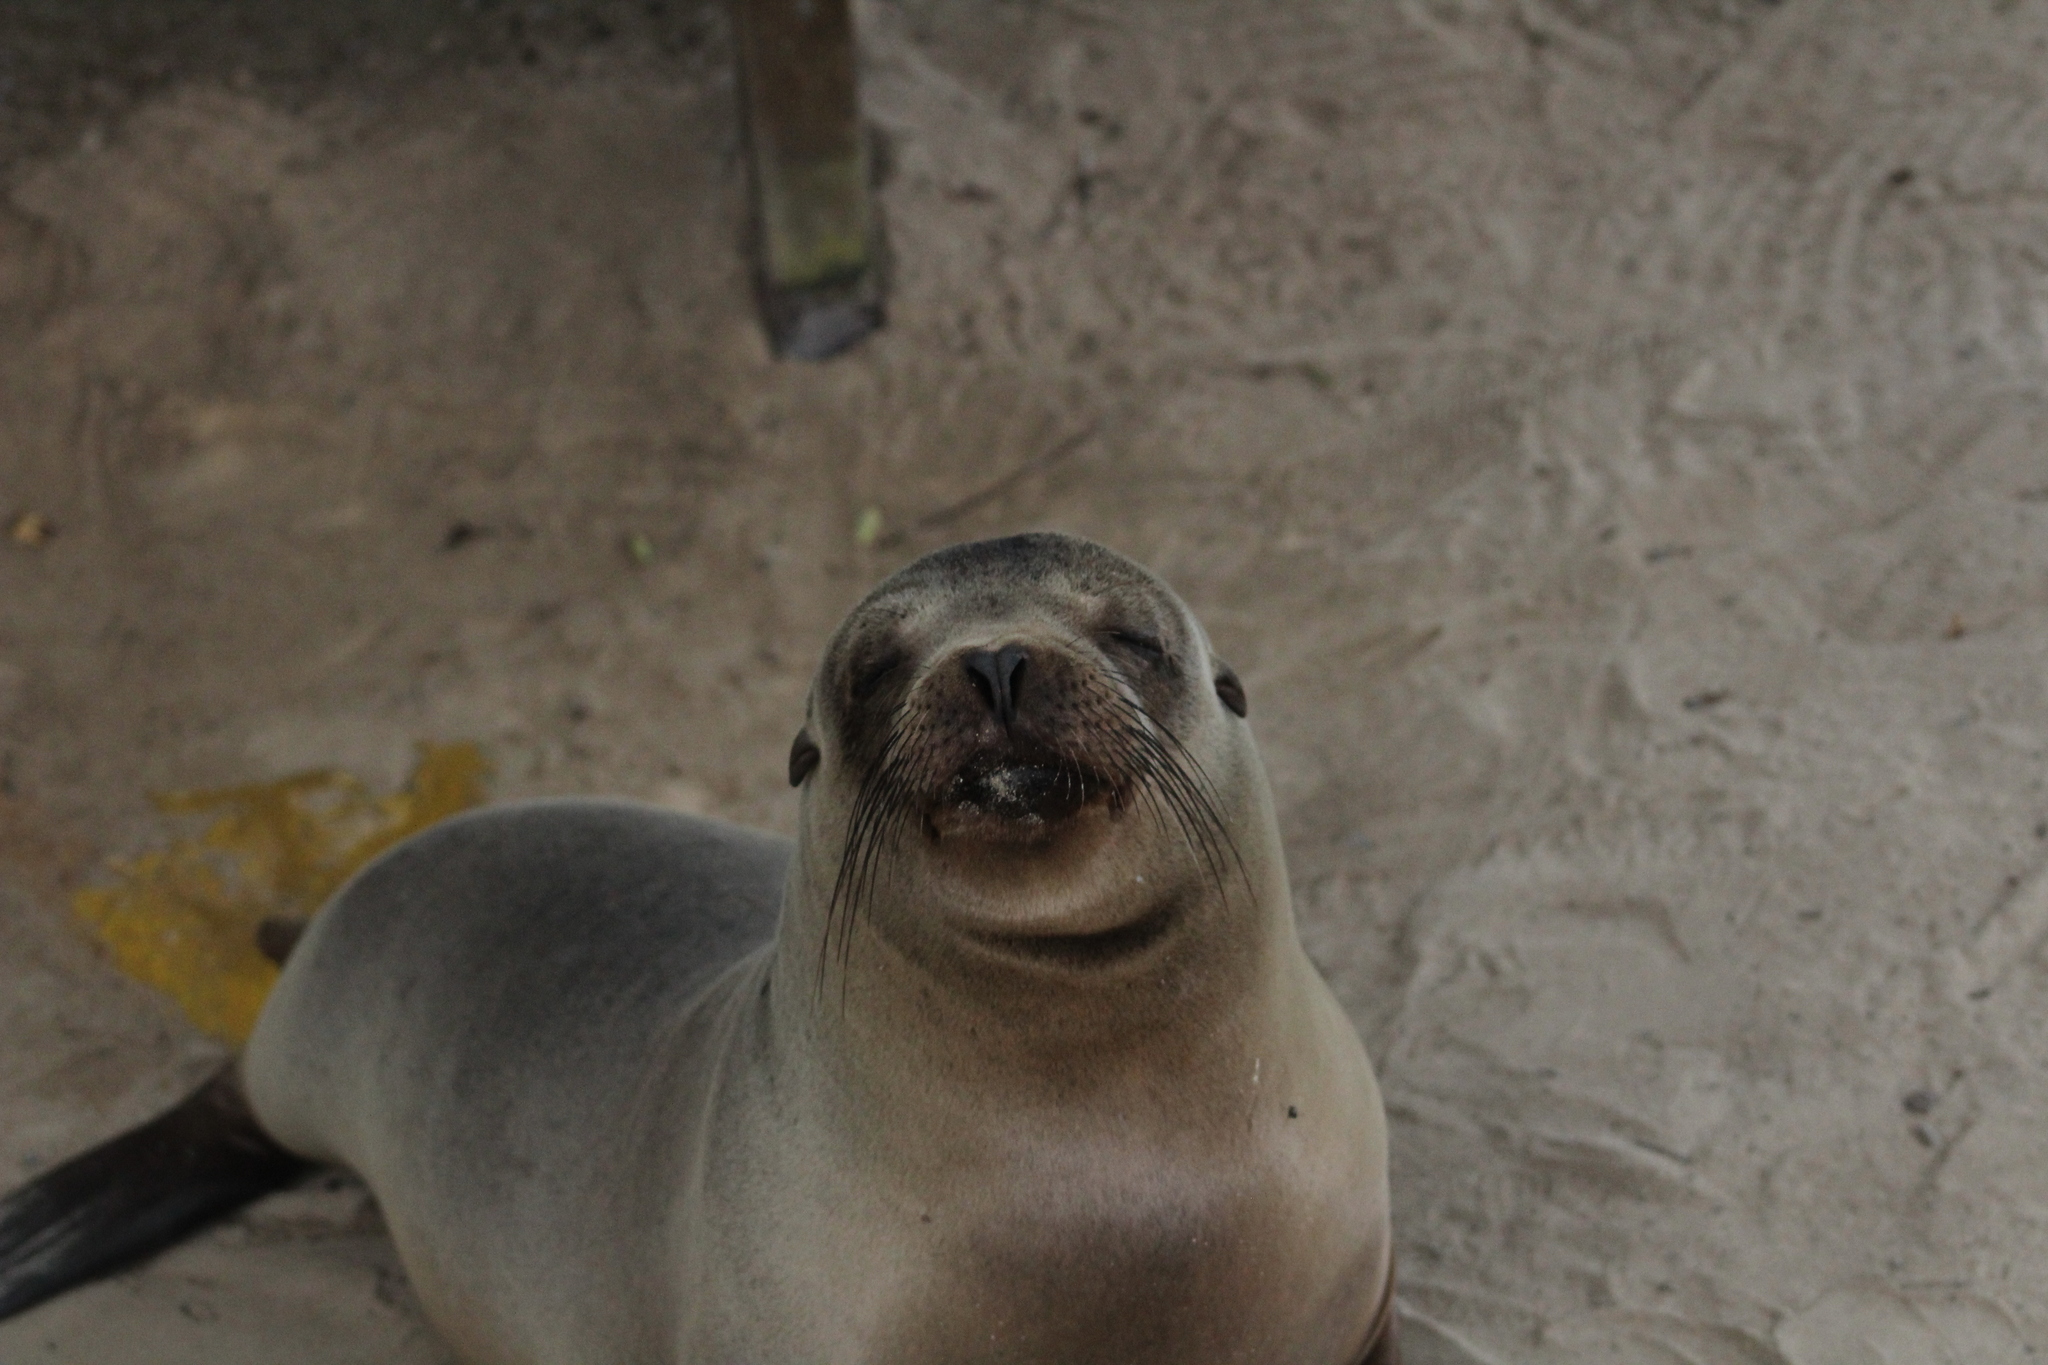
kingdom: Animalia
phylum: Chordata
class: Mammalia
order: Carnivora
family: Otariidae
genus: Zalophus
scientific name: Zalophus wollebaeki
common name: Galapagos sea lion
